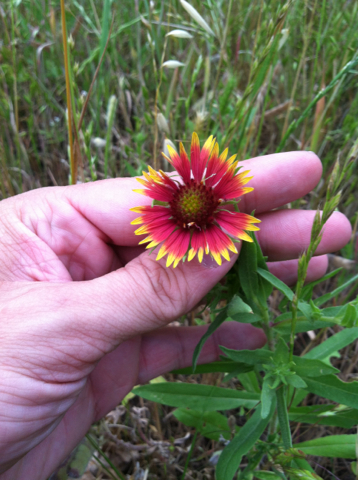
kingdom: Plantae
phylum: Tracheophyta
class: Magnoliopsida
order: Asterales
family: Asteraceae
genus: Gaillardia
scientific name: Gaillardia pulchella
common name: Firewheel
